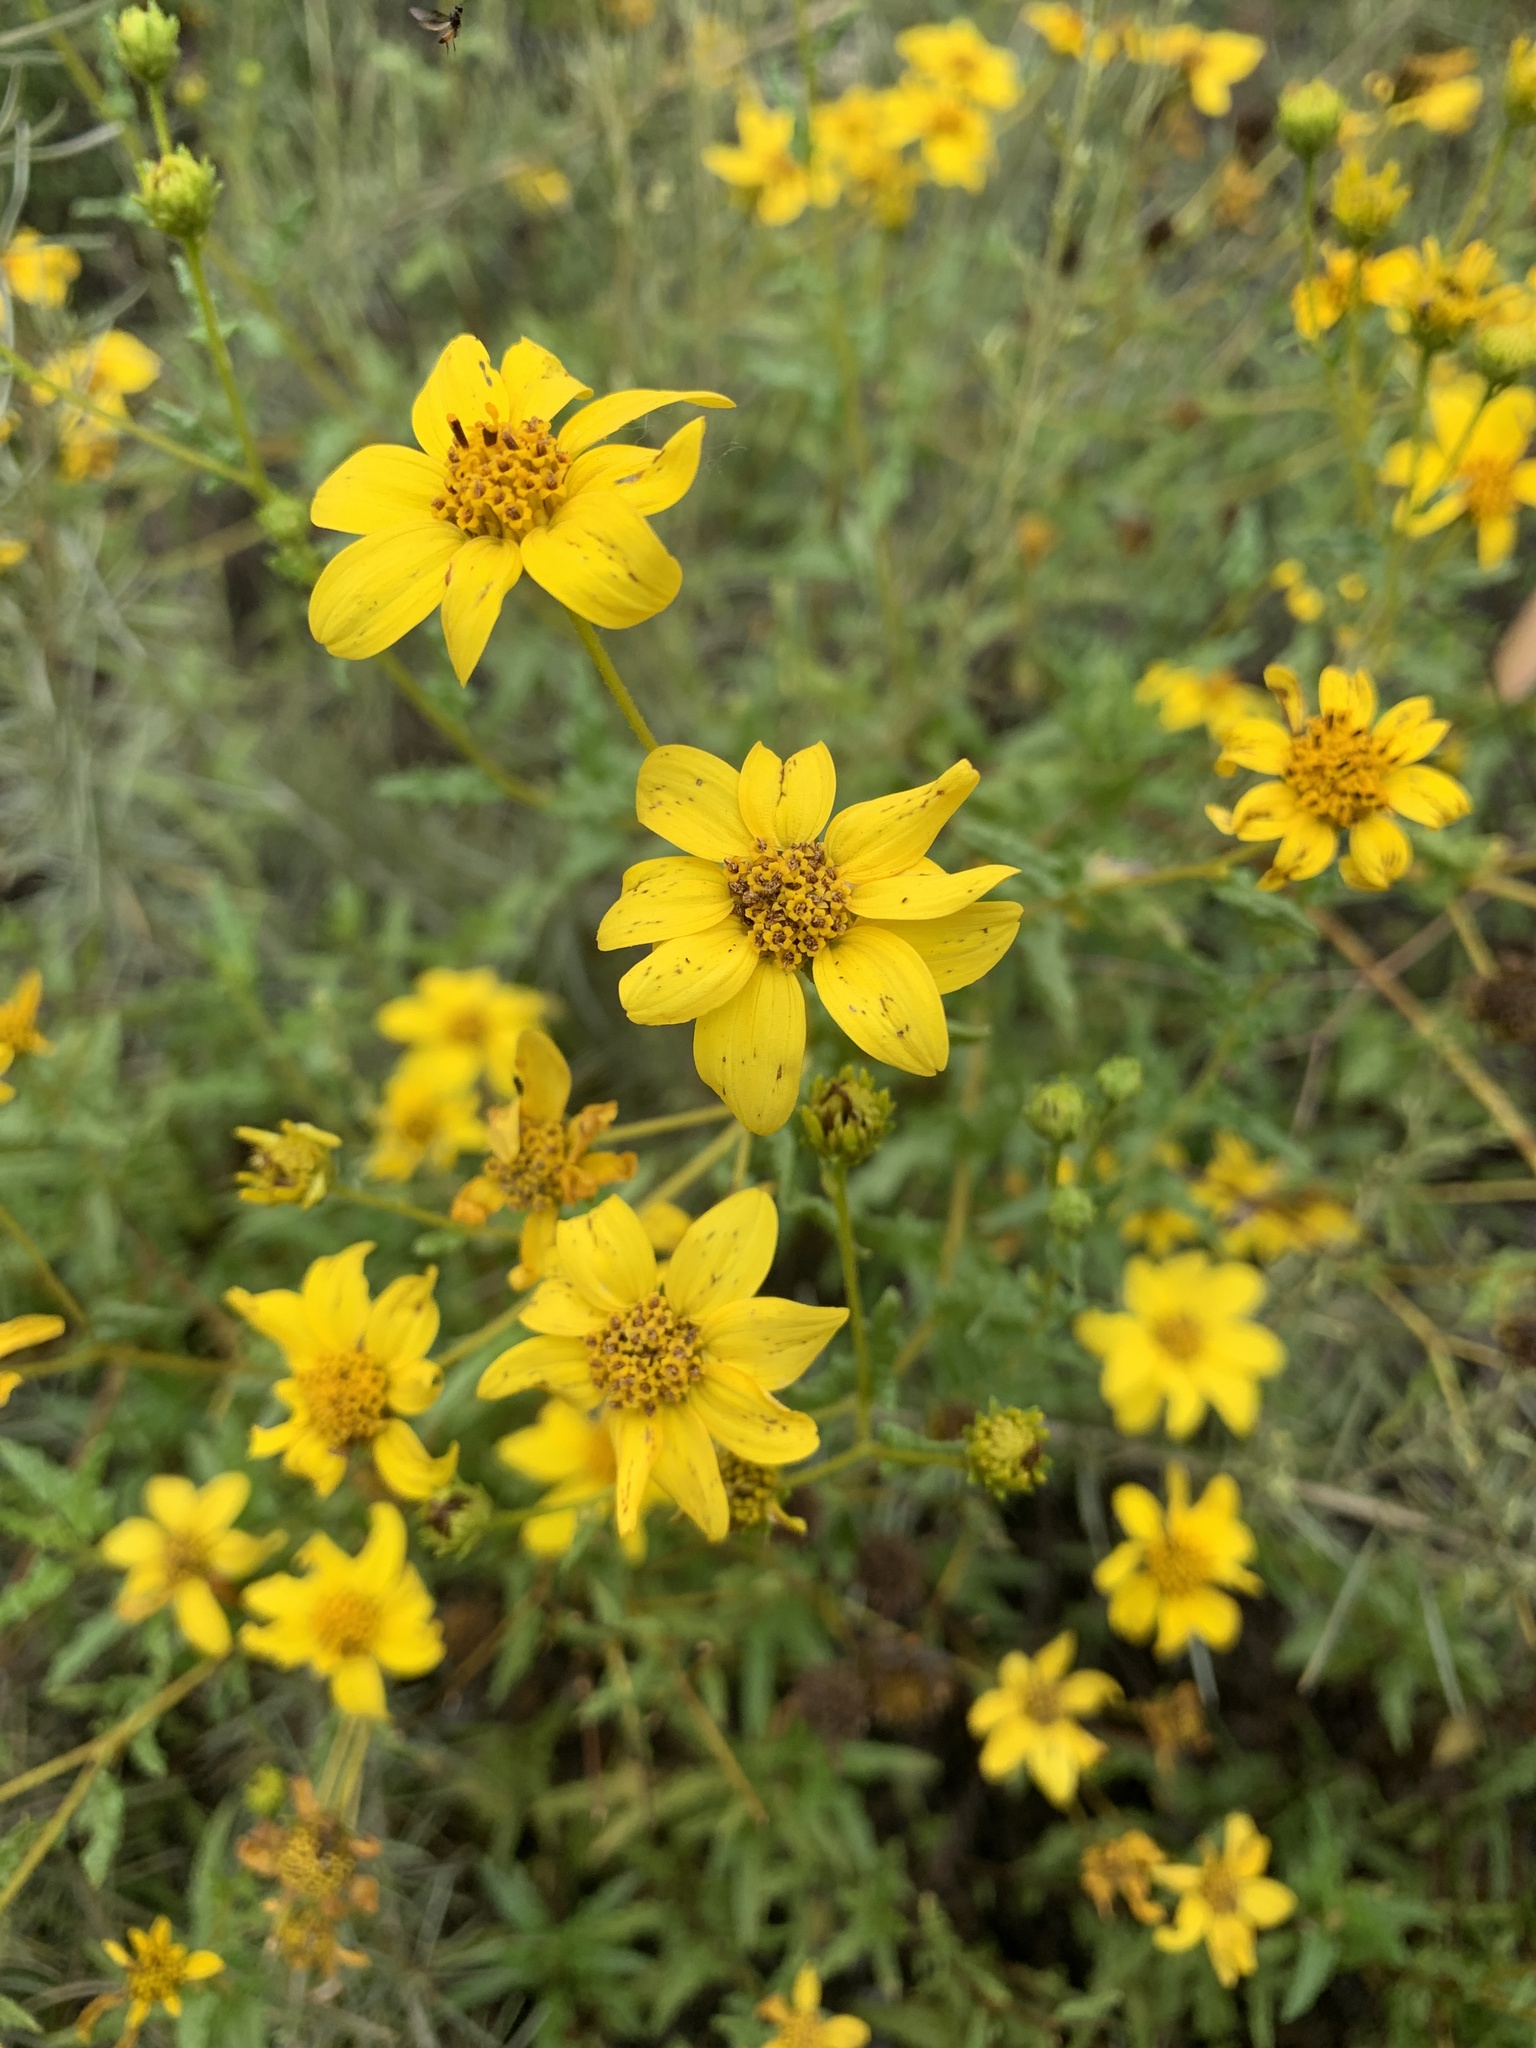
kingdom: Plantae
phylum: Tracheophyta
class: Magnoliopsida
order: Asterales
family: Asteraceae
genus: Bahiopsis
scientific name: Bahiopsis laciniata
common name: San diego county viguiera
